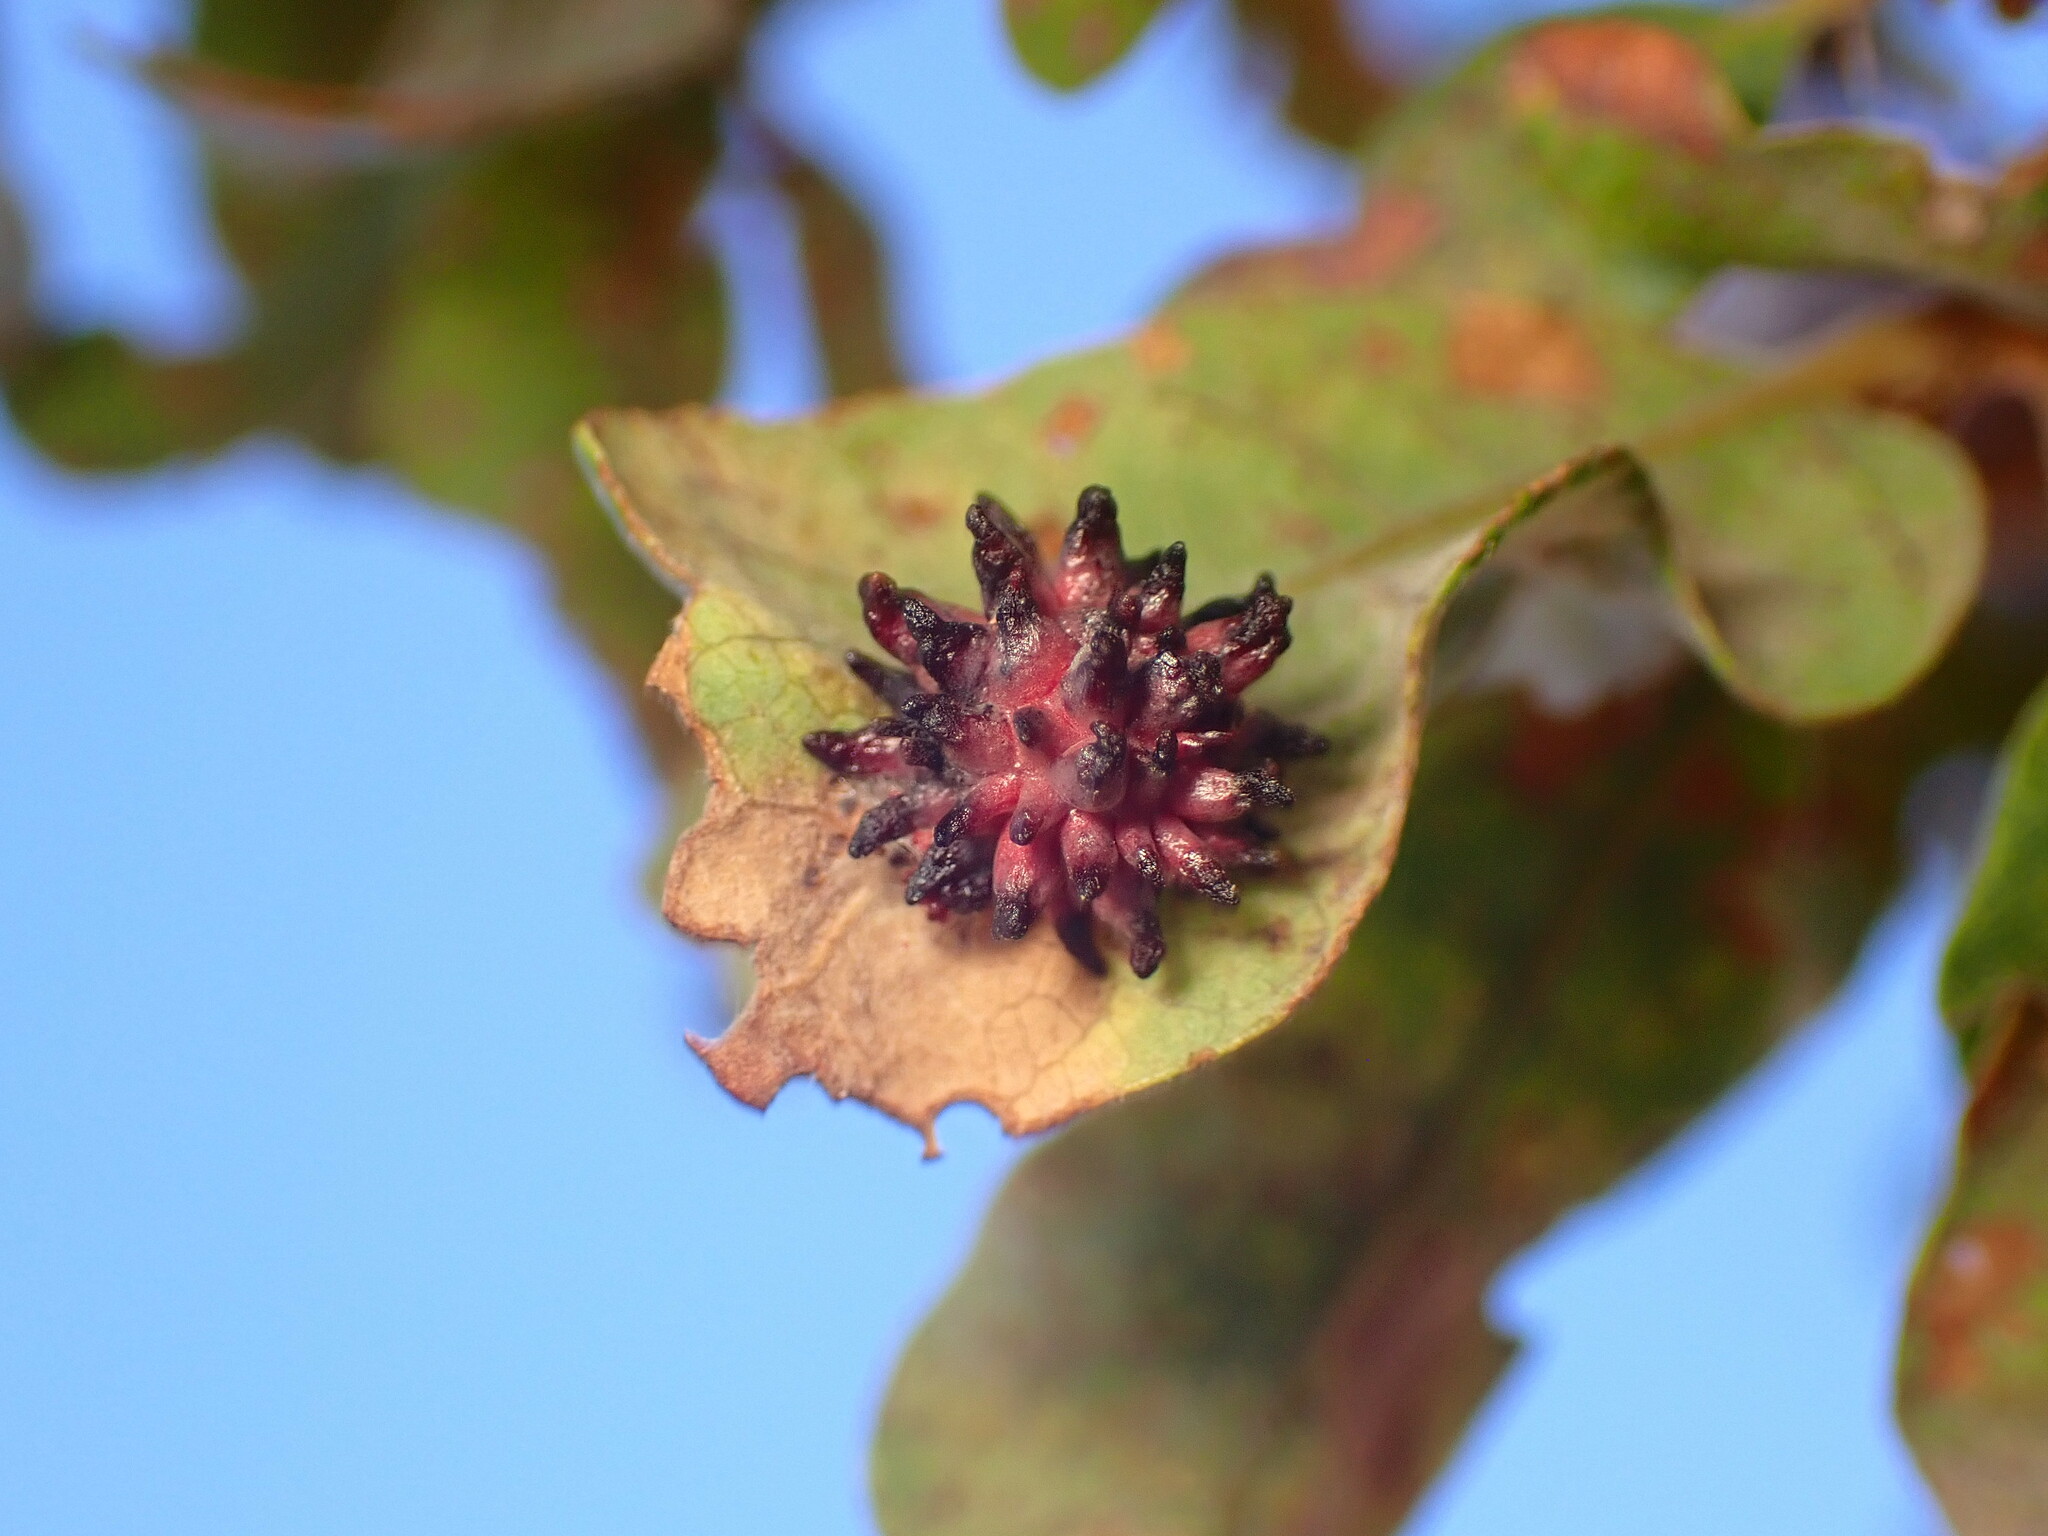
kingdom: Animalia
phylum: Arthropoda
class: Insecta
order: Hymenoptera
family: Cynipidae
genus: Cynips
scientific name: Cynips
